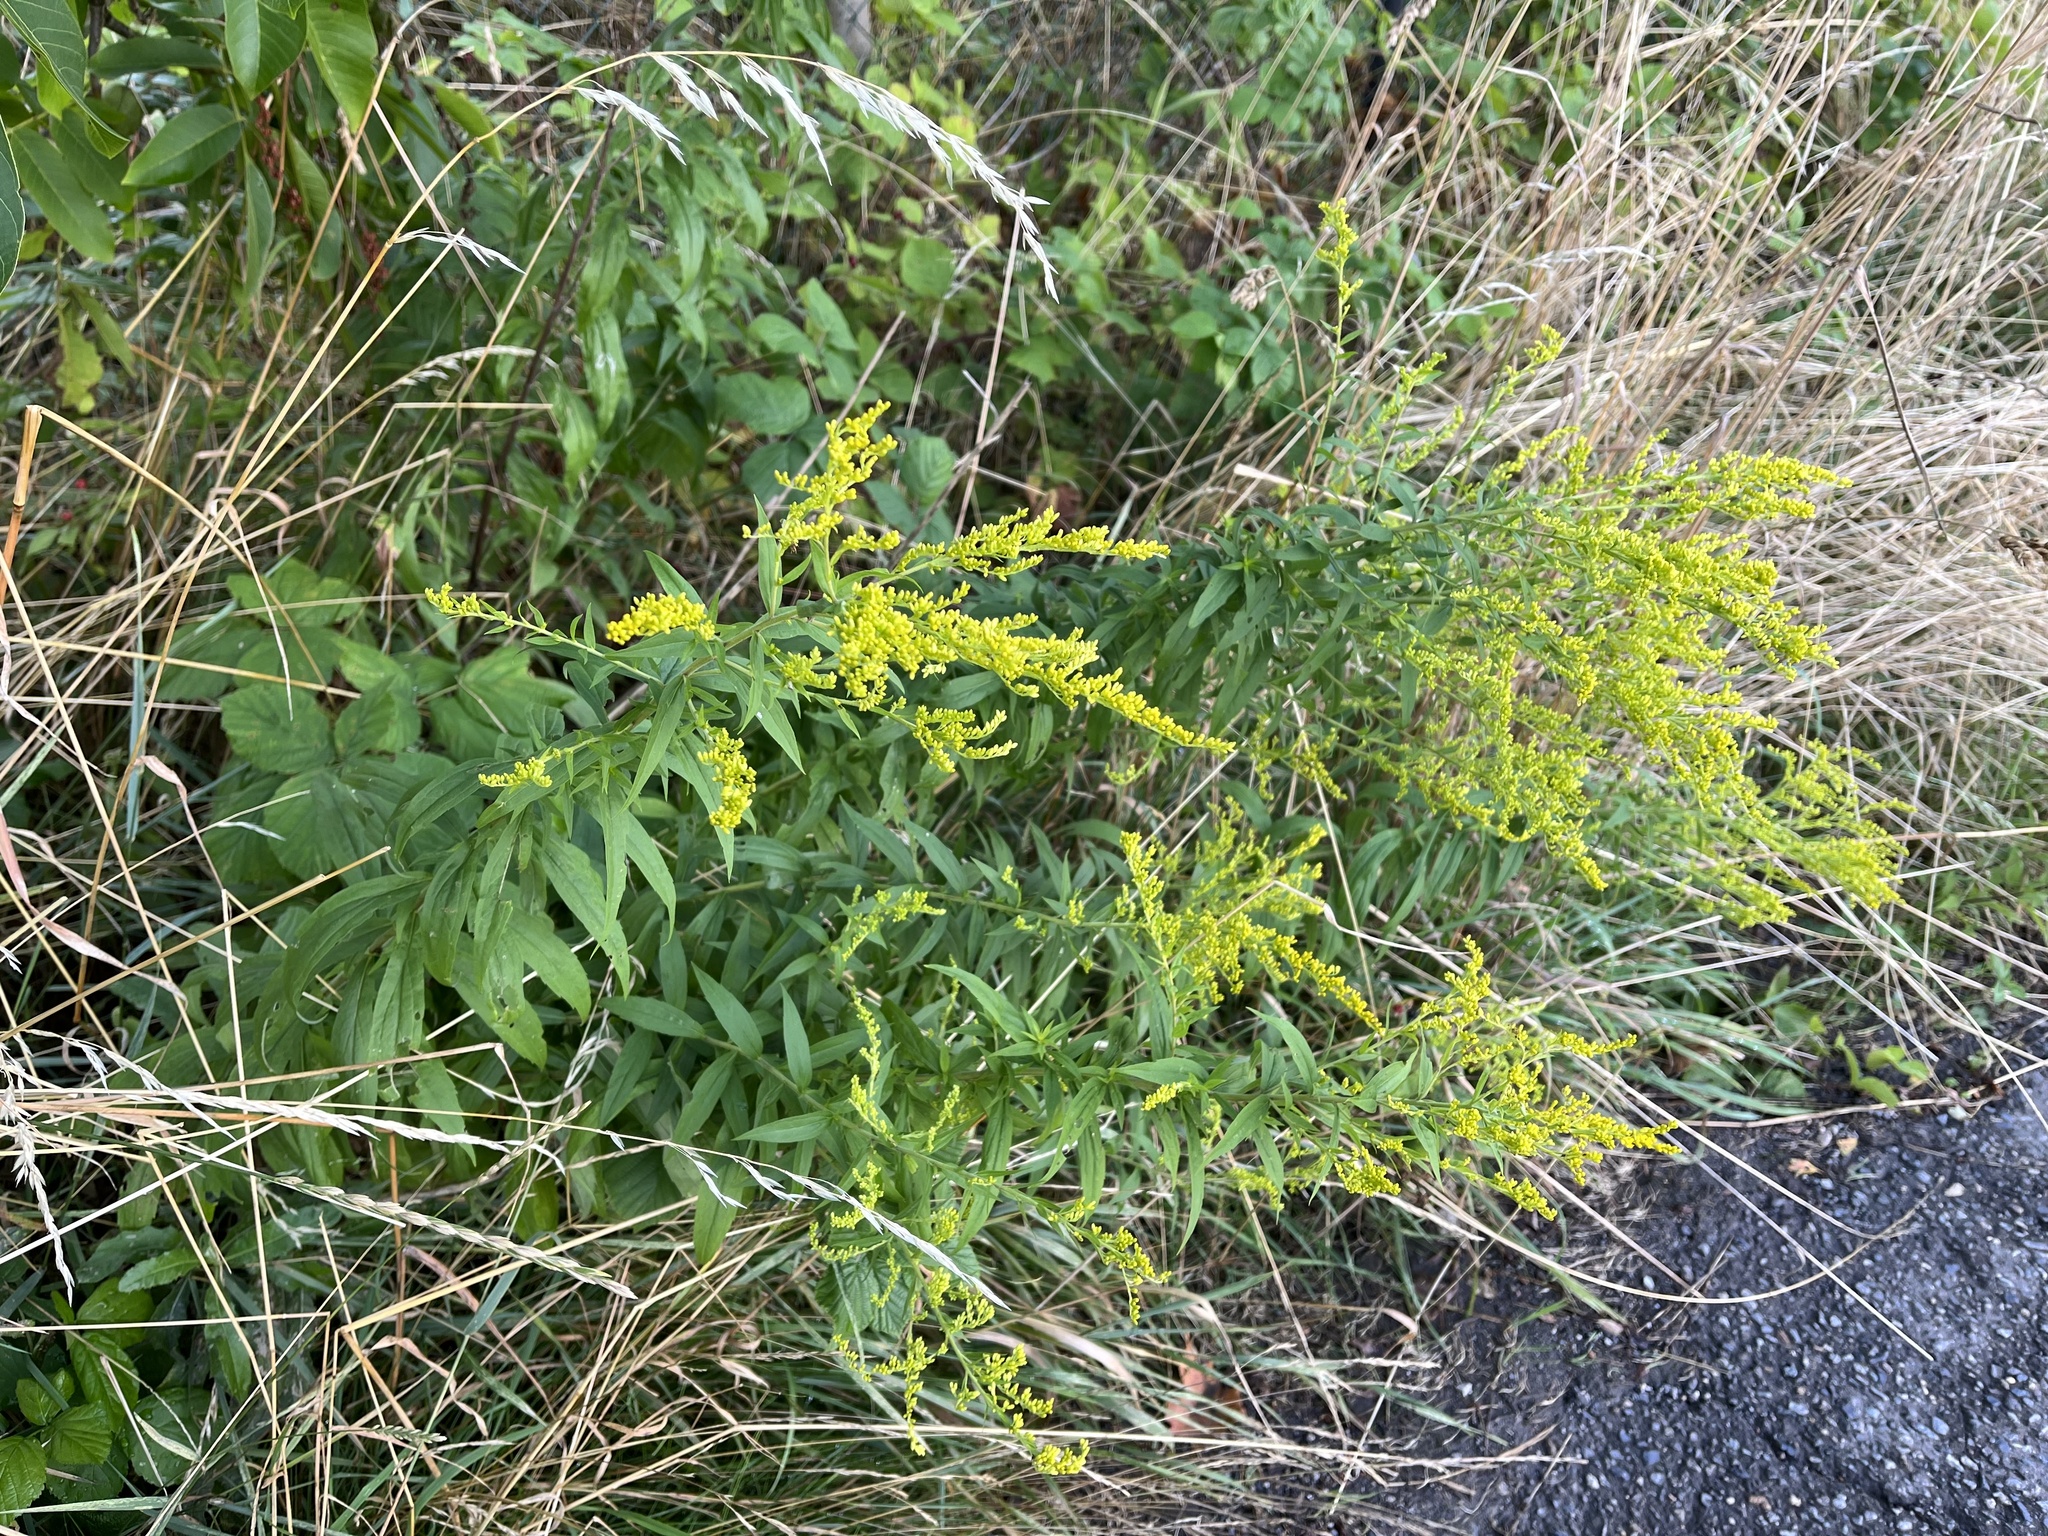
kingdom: Plantae
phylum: Tracheophyta
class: Magnoliopsida
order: Asterales
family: Asteraceae
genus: Solidago
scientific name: Solidago canadensis
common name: Canada goldenrod
